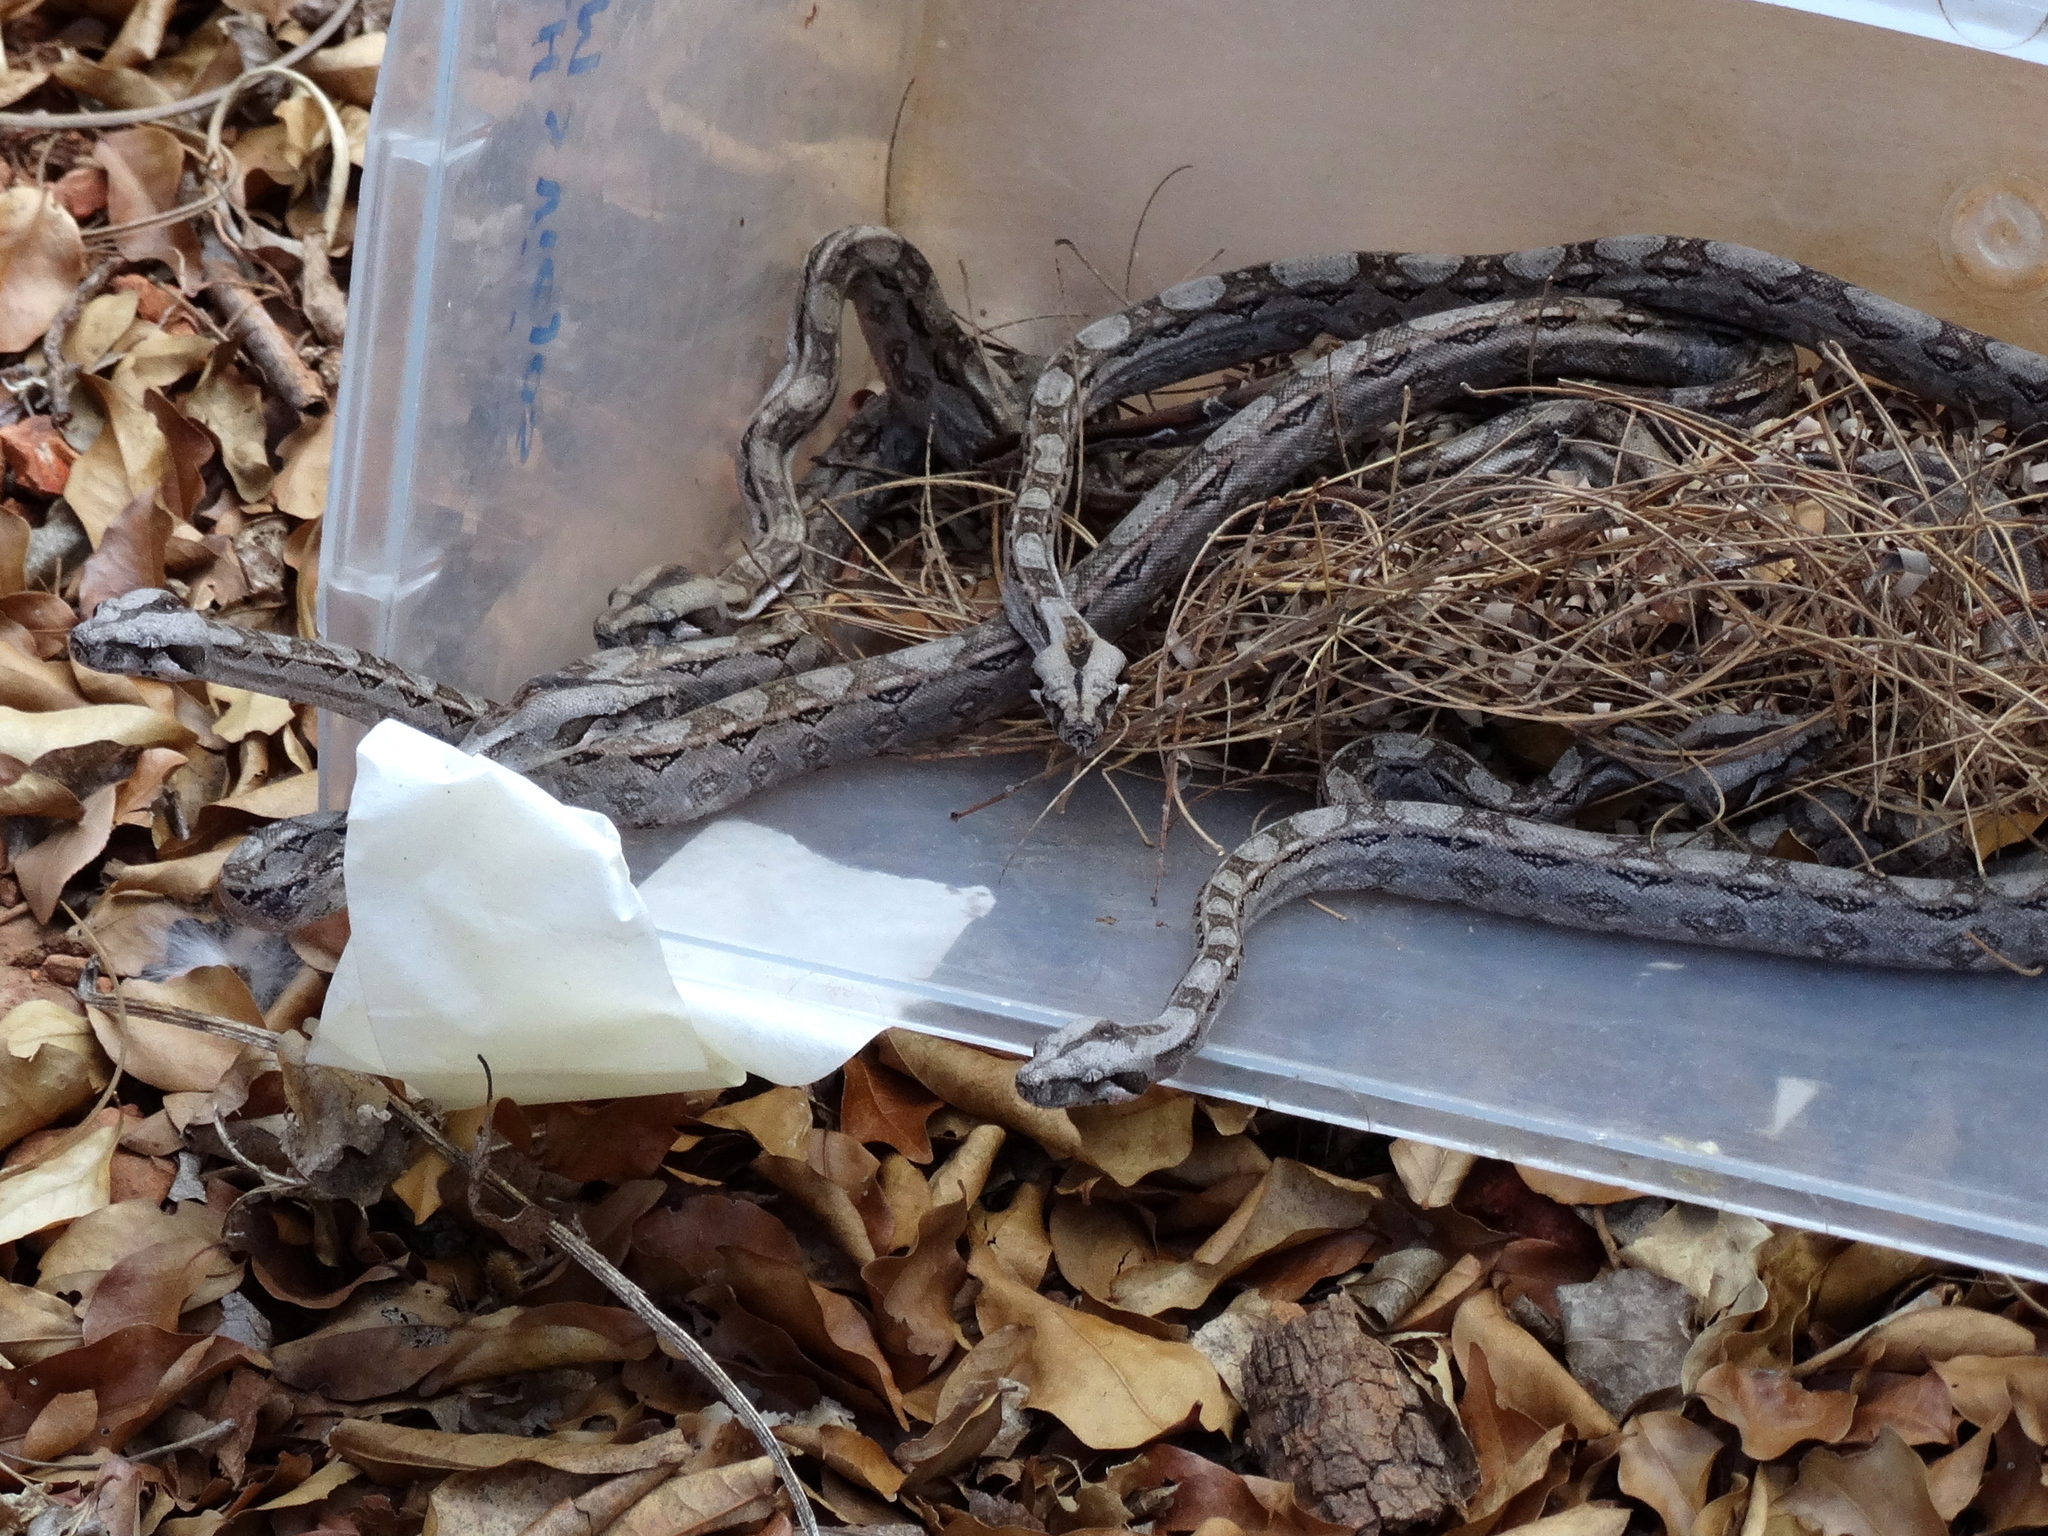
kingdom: Animalia
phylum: Chordata
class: Squamata
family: Boidae
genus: Boa
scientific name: Boa
